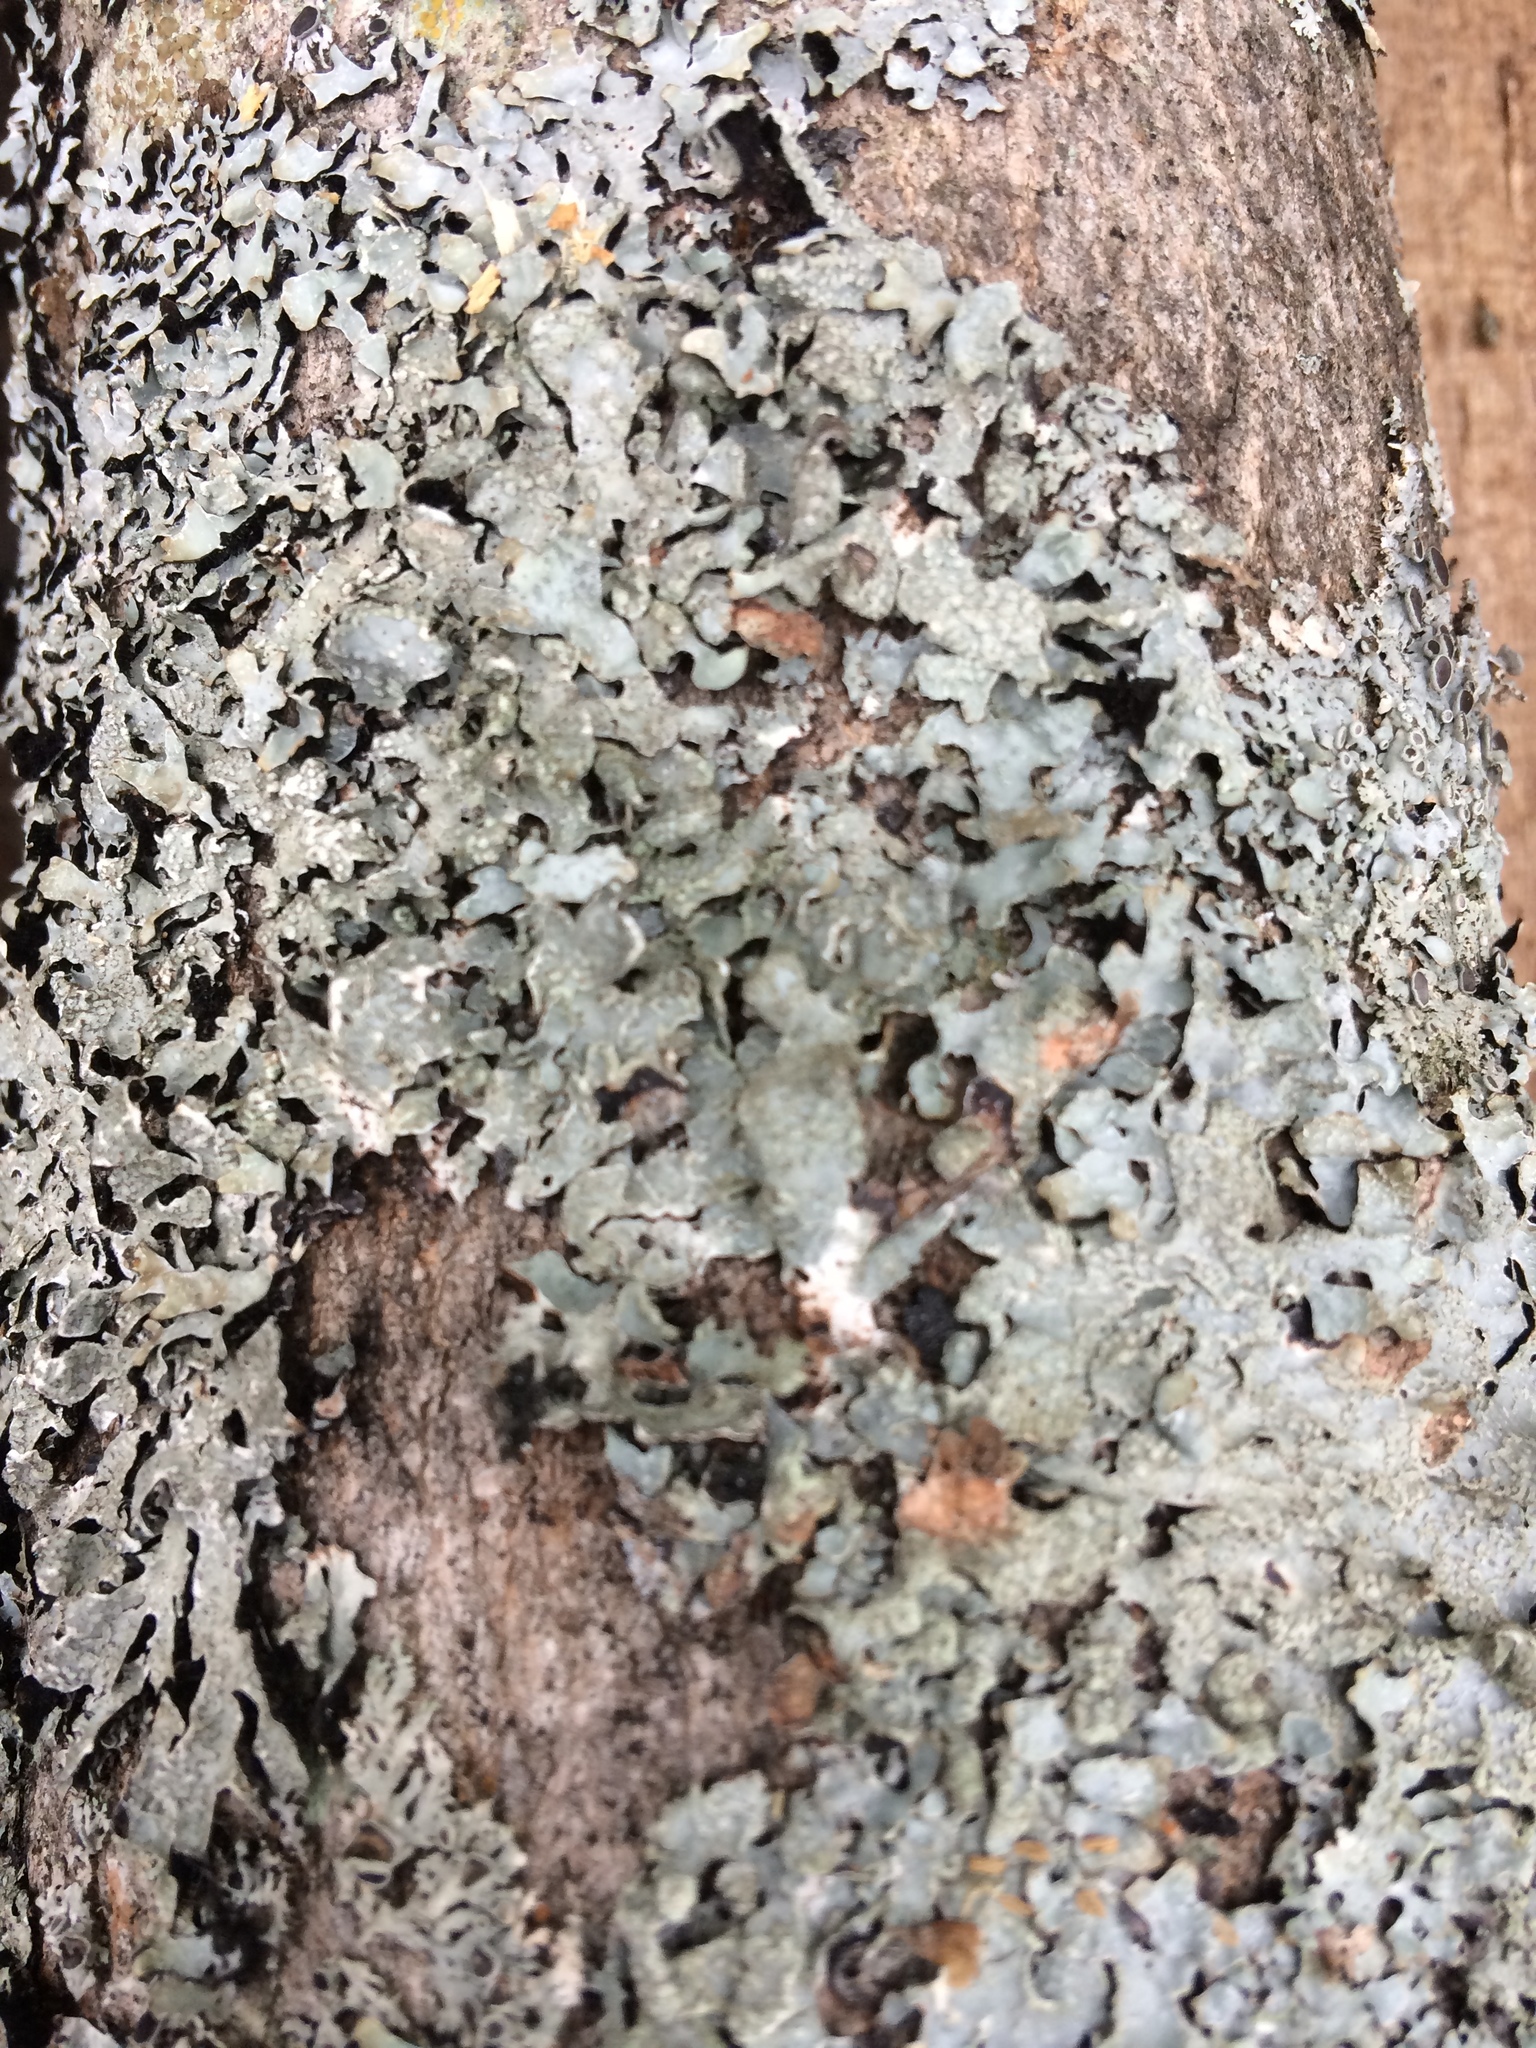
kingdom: Fungi
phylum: Ascomycota
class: Lecanoromycetes
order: Lecanorales
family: Parmeliaceae
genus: Parmelia
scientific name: Parmelia sulcata
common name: Netted shield lichen
